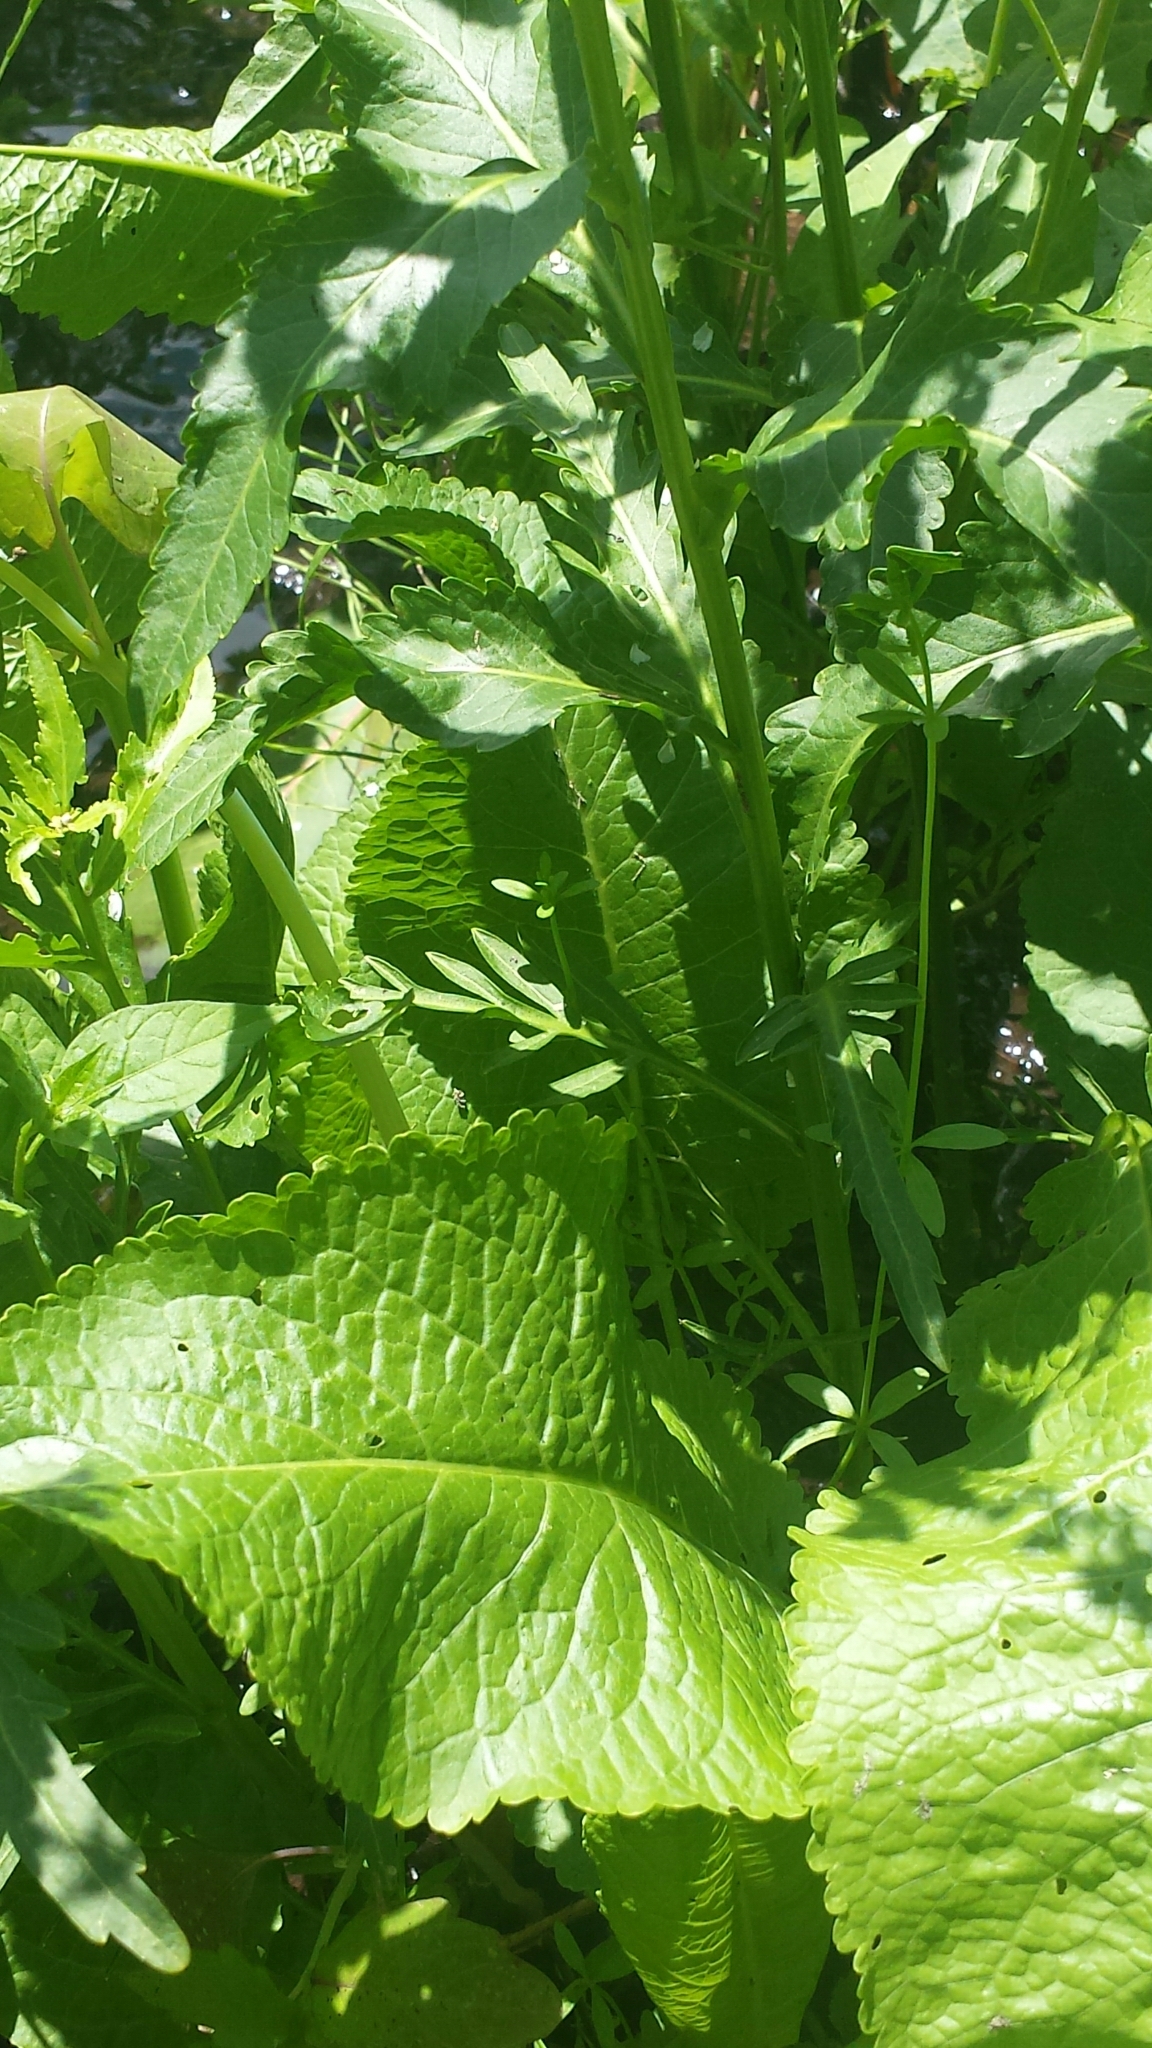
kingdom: Plantae
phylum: Tracheophyta
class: Magnoliopsida
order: Brassicales
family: Brassicaceae
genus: Armoracia
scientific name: Armoracia rusticana
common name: Horseradish
